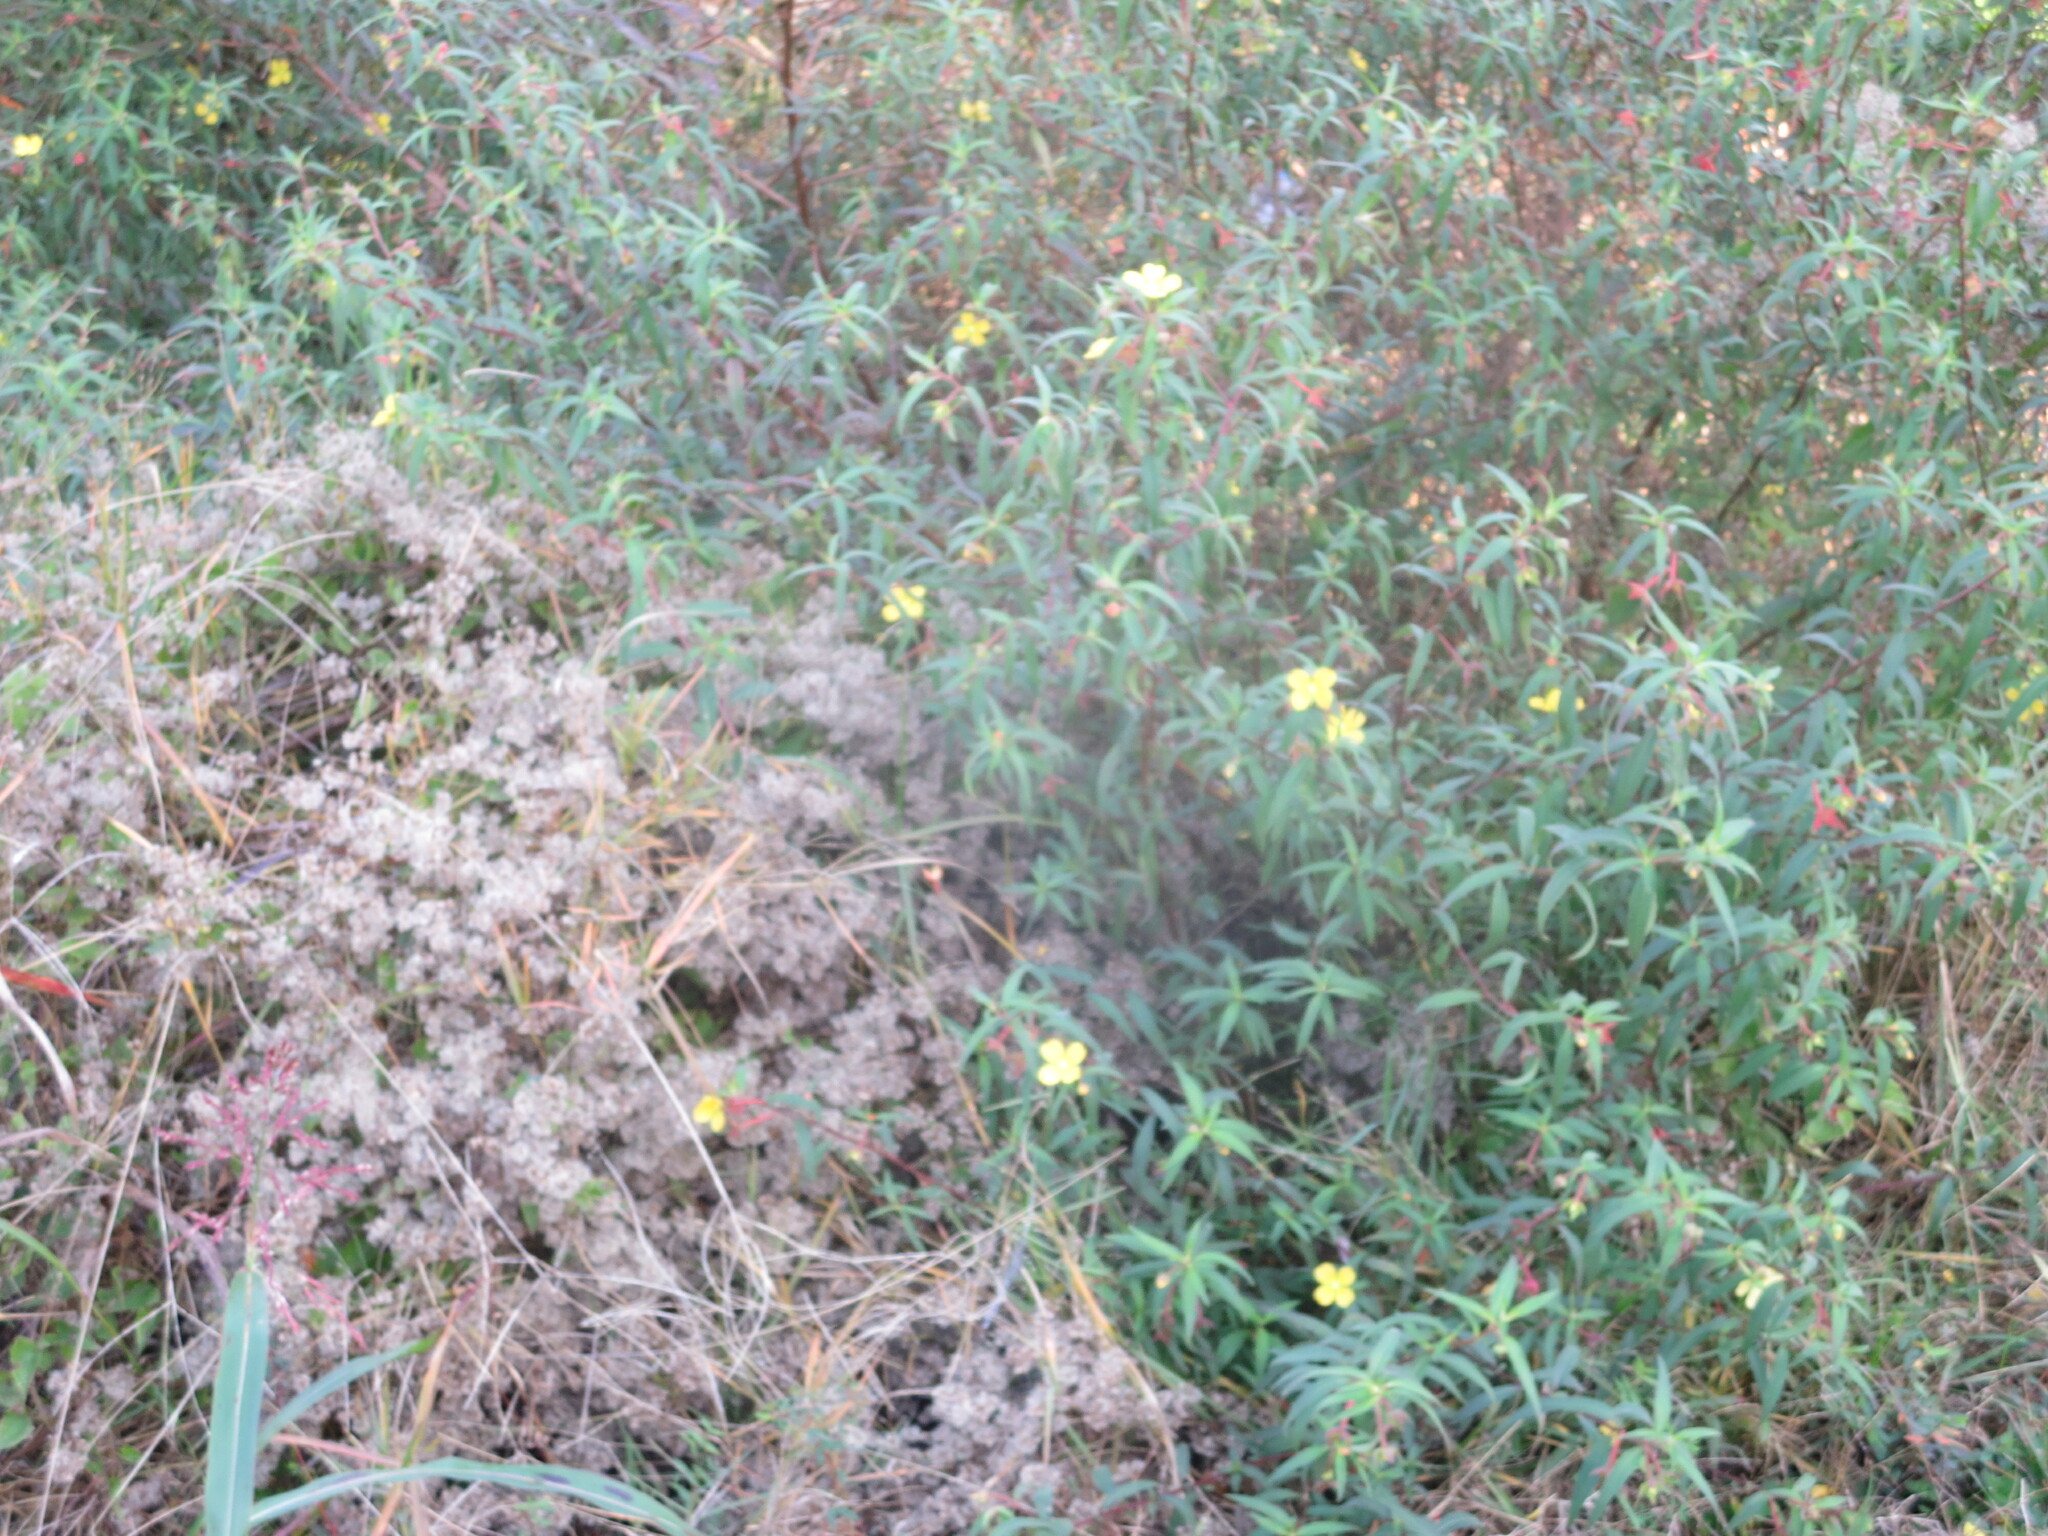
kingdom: Plantae
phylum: Tracheophyta
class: Magnoliopsida
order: Myrtales
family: Onagraceae
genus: Ludwigia
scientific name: Ludwigia octovalvis
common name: Water-primrose
